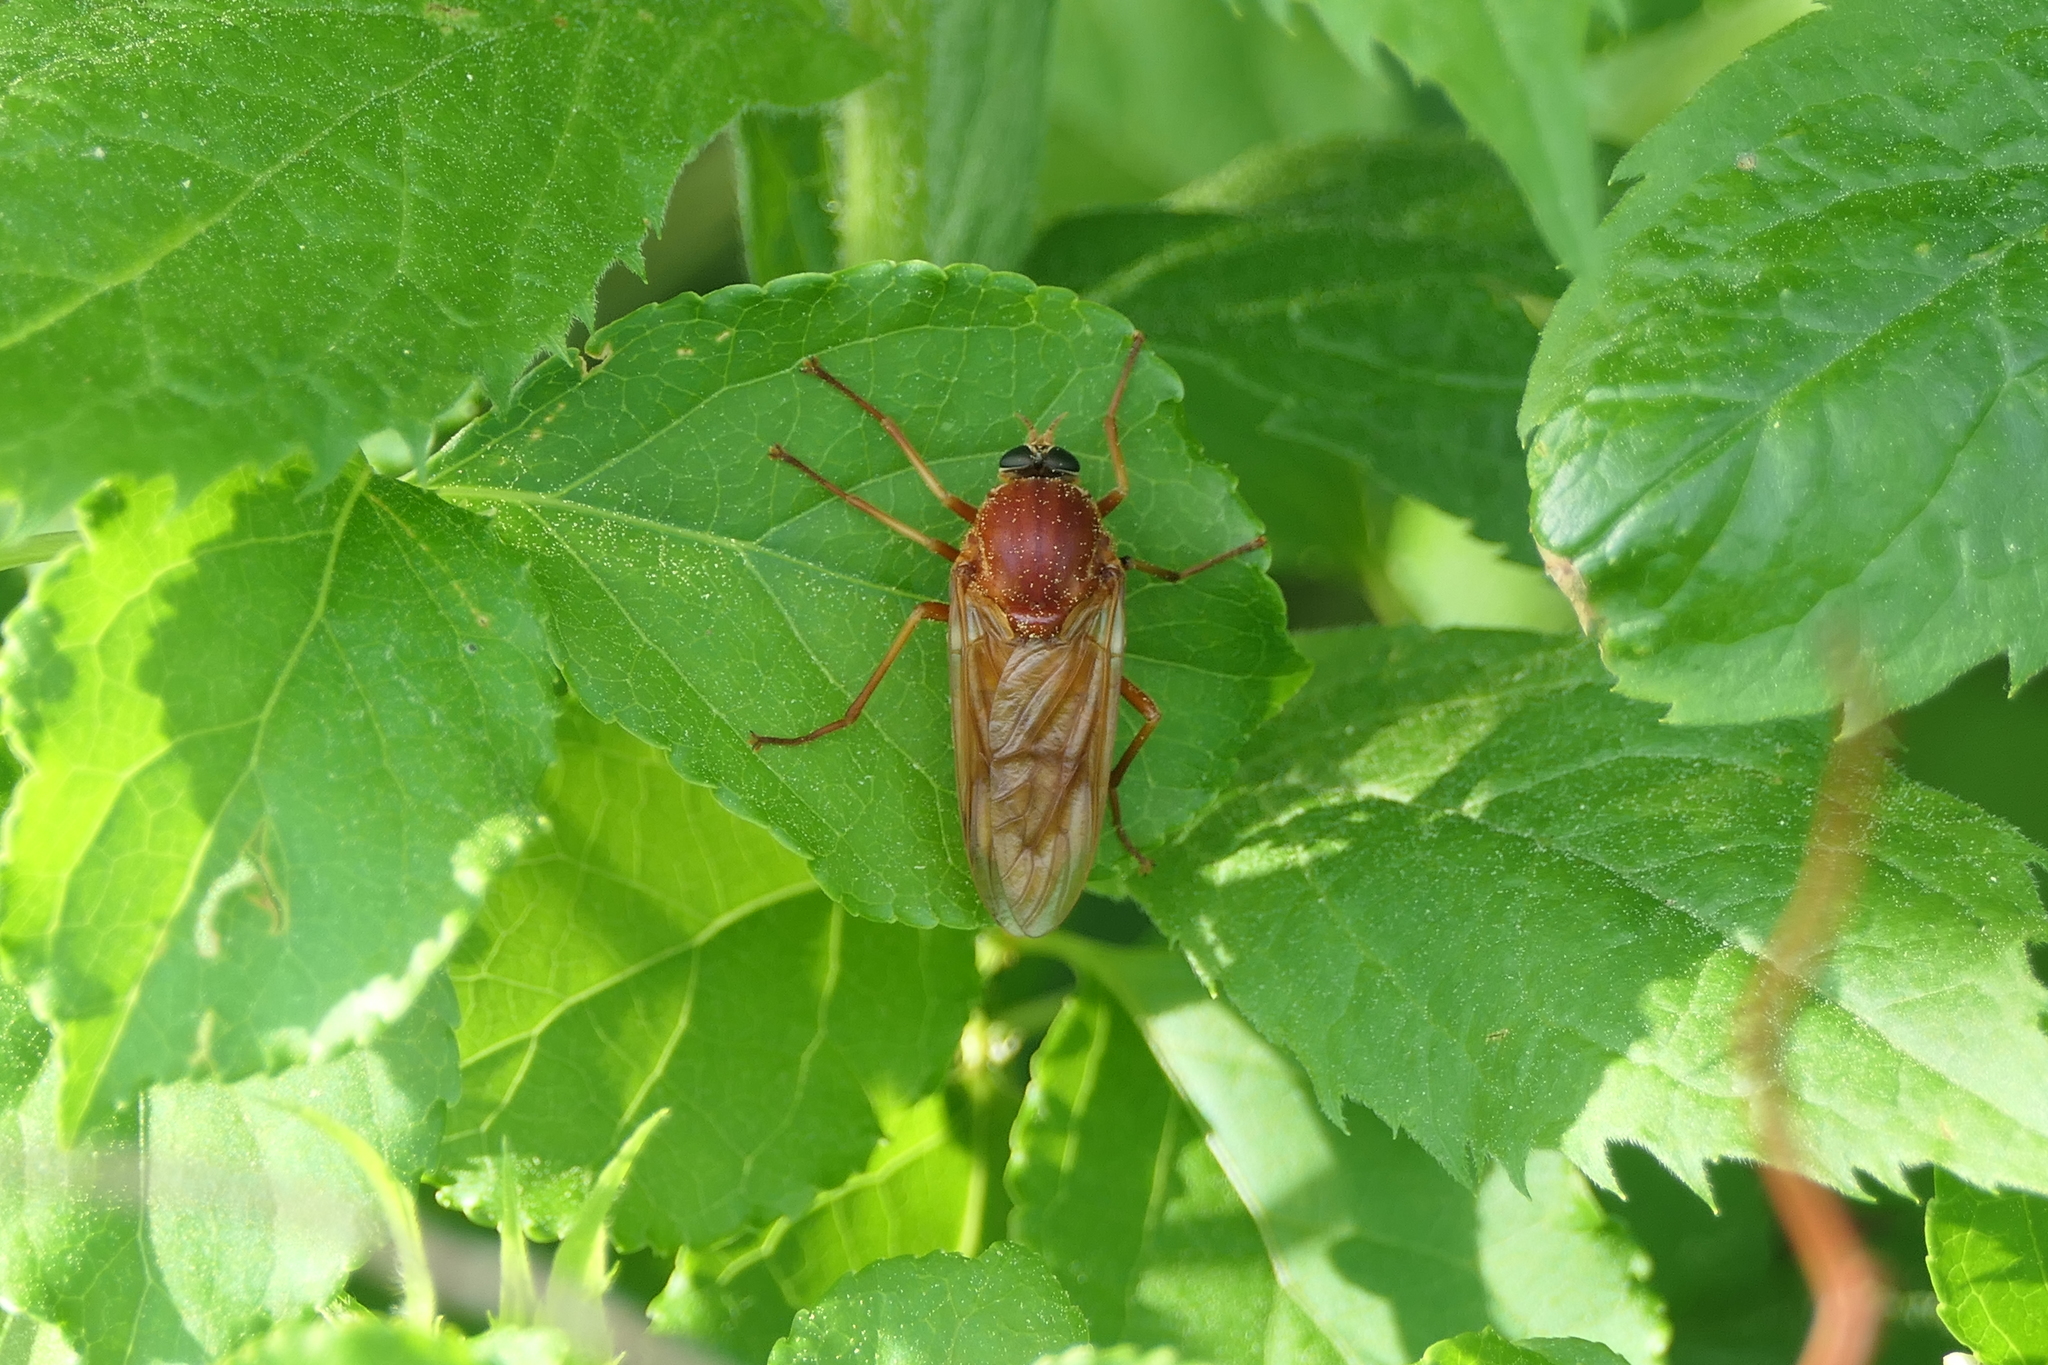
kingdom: Animalia
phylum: Arthropoda
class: Insecta
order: Diptera
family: Xylophagidae
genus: Coenomyia
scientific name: Coenomyia ferruginea
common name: Stink fly
